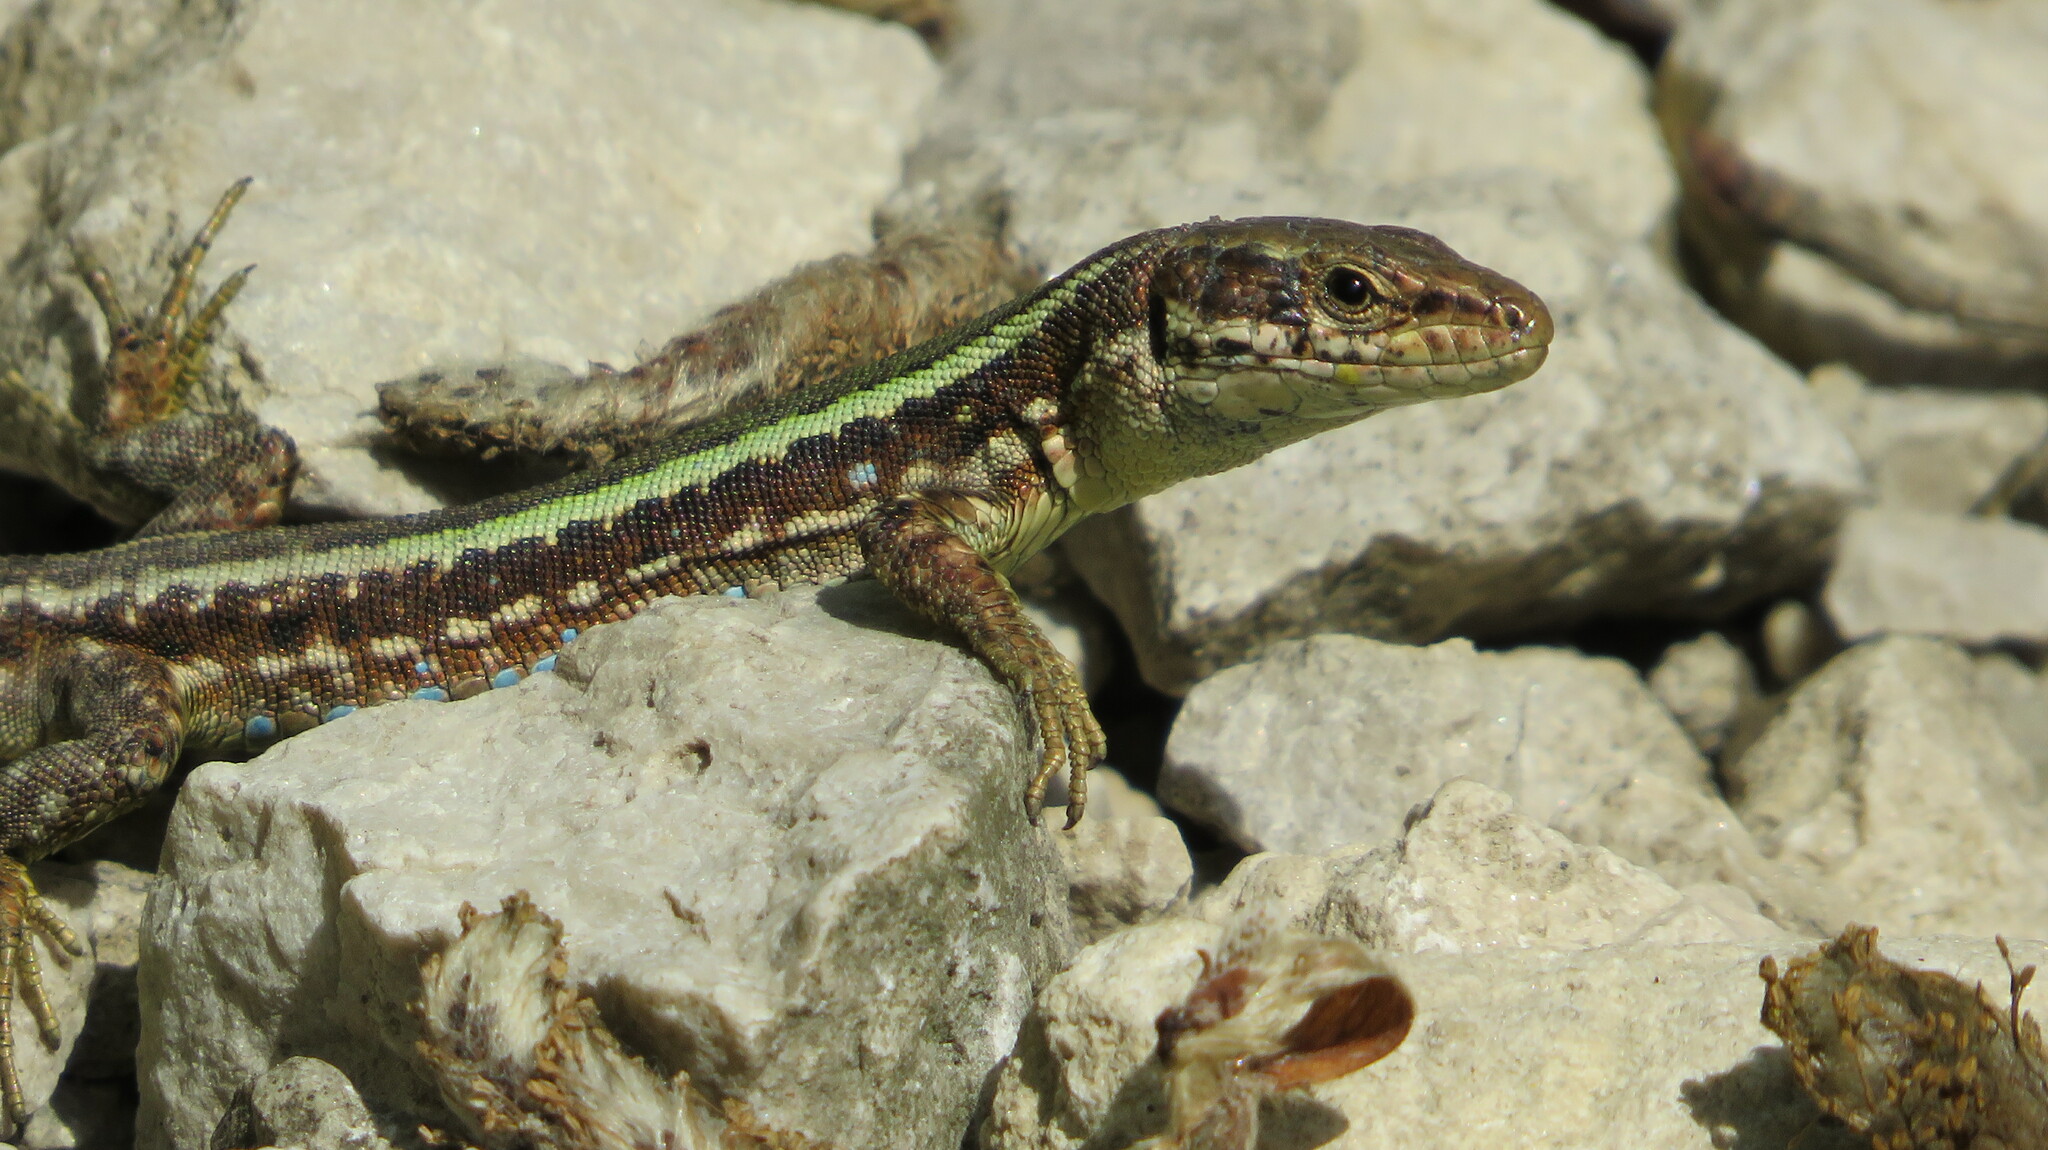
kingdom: Animalia
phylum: Chordata
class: Squamata
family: Lacertidae
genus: Darevskia
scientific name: Darevskia caucasica
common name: Caucasian llzard
